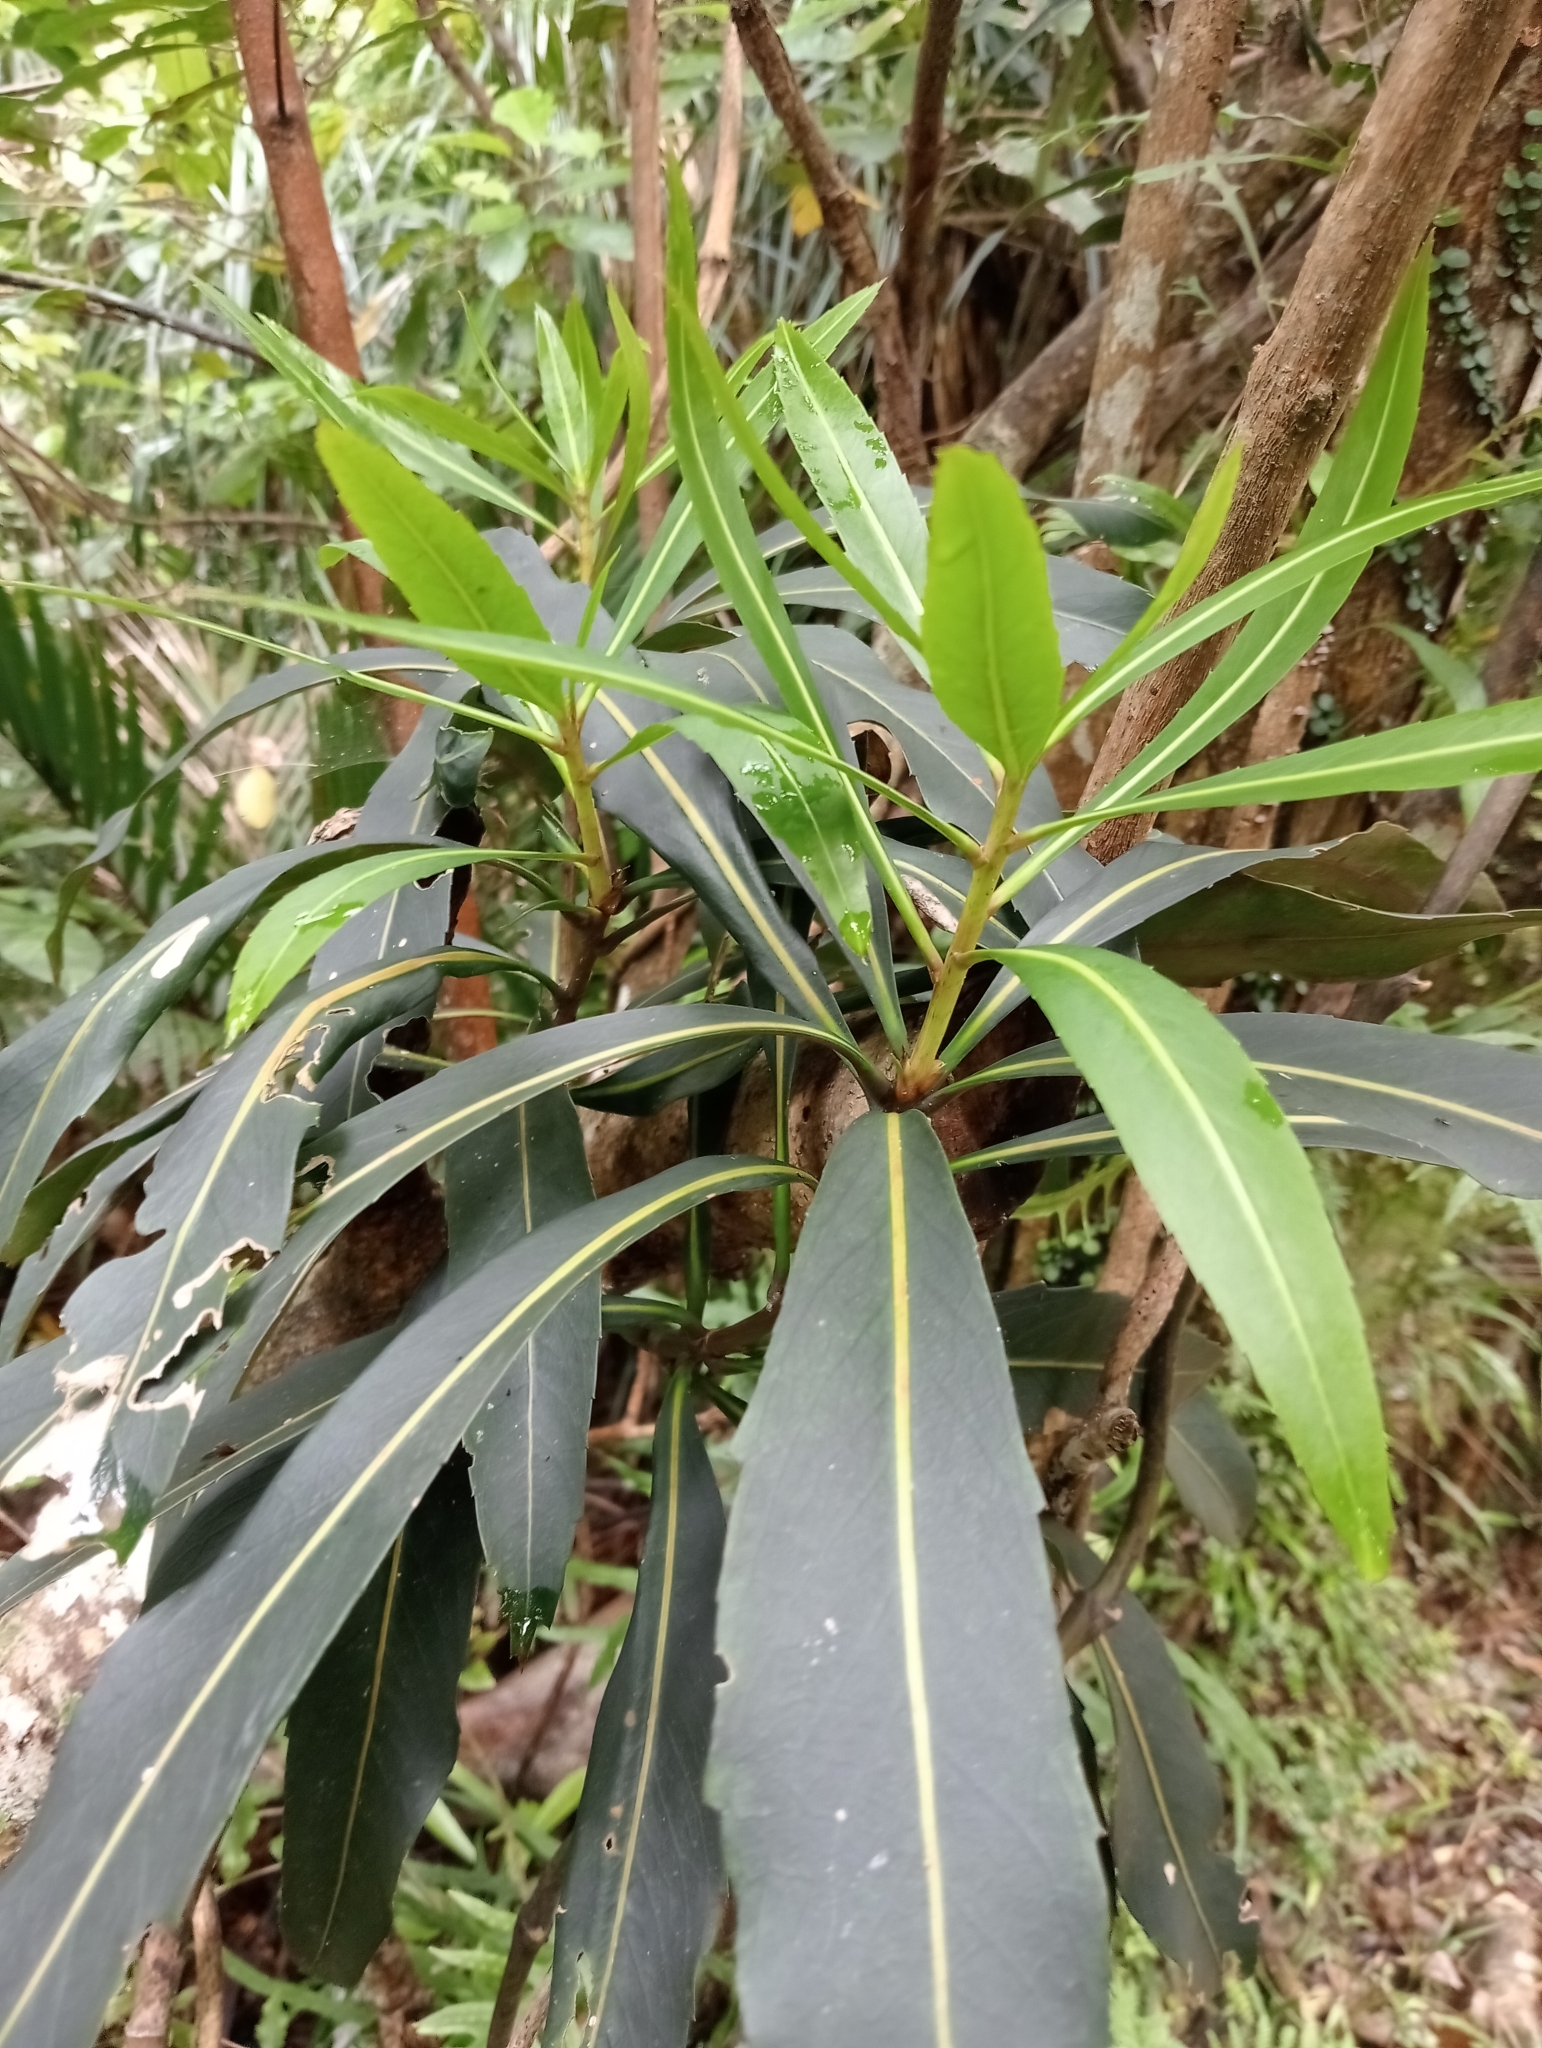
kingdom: Plantae
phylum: Tracheophyta
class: Magnoliopsida
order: Apiales
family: Araliaceae
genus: Pseudopanax
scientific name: Pseudopanax crassifolius
